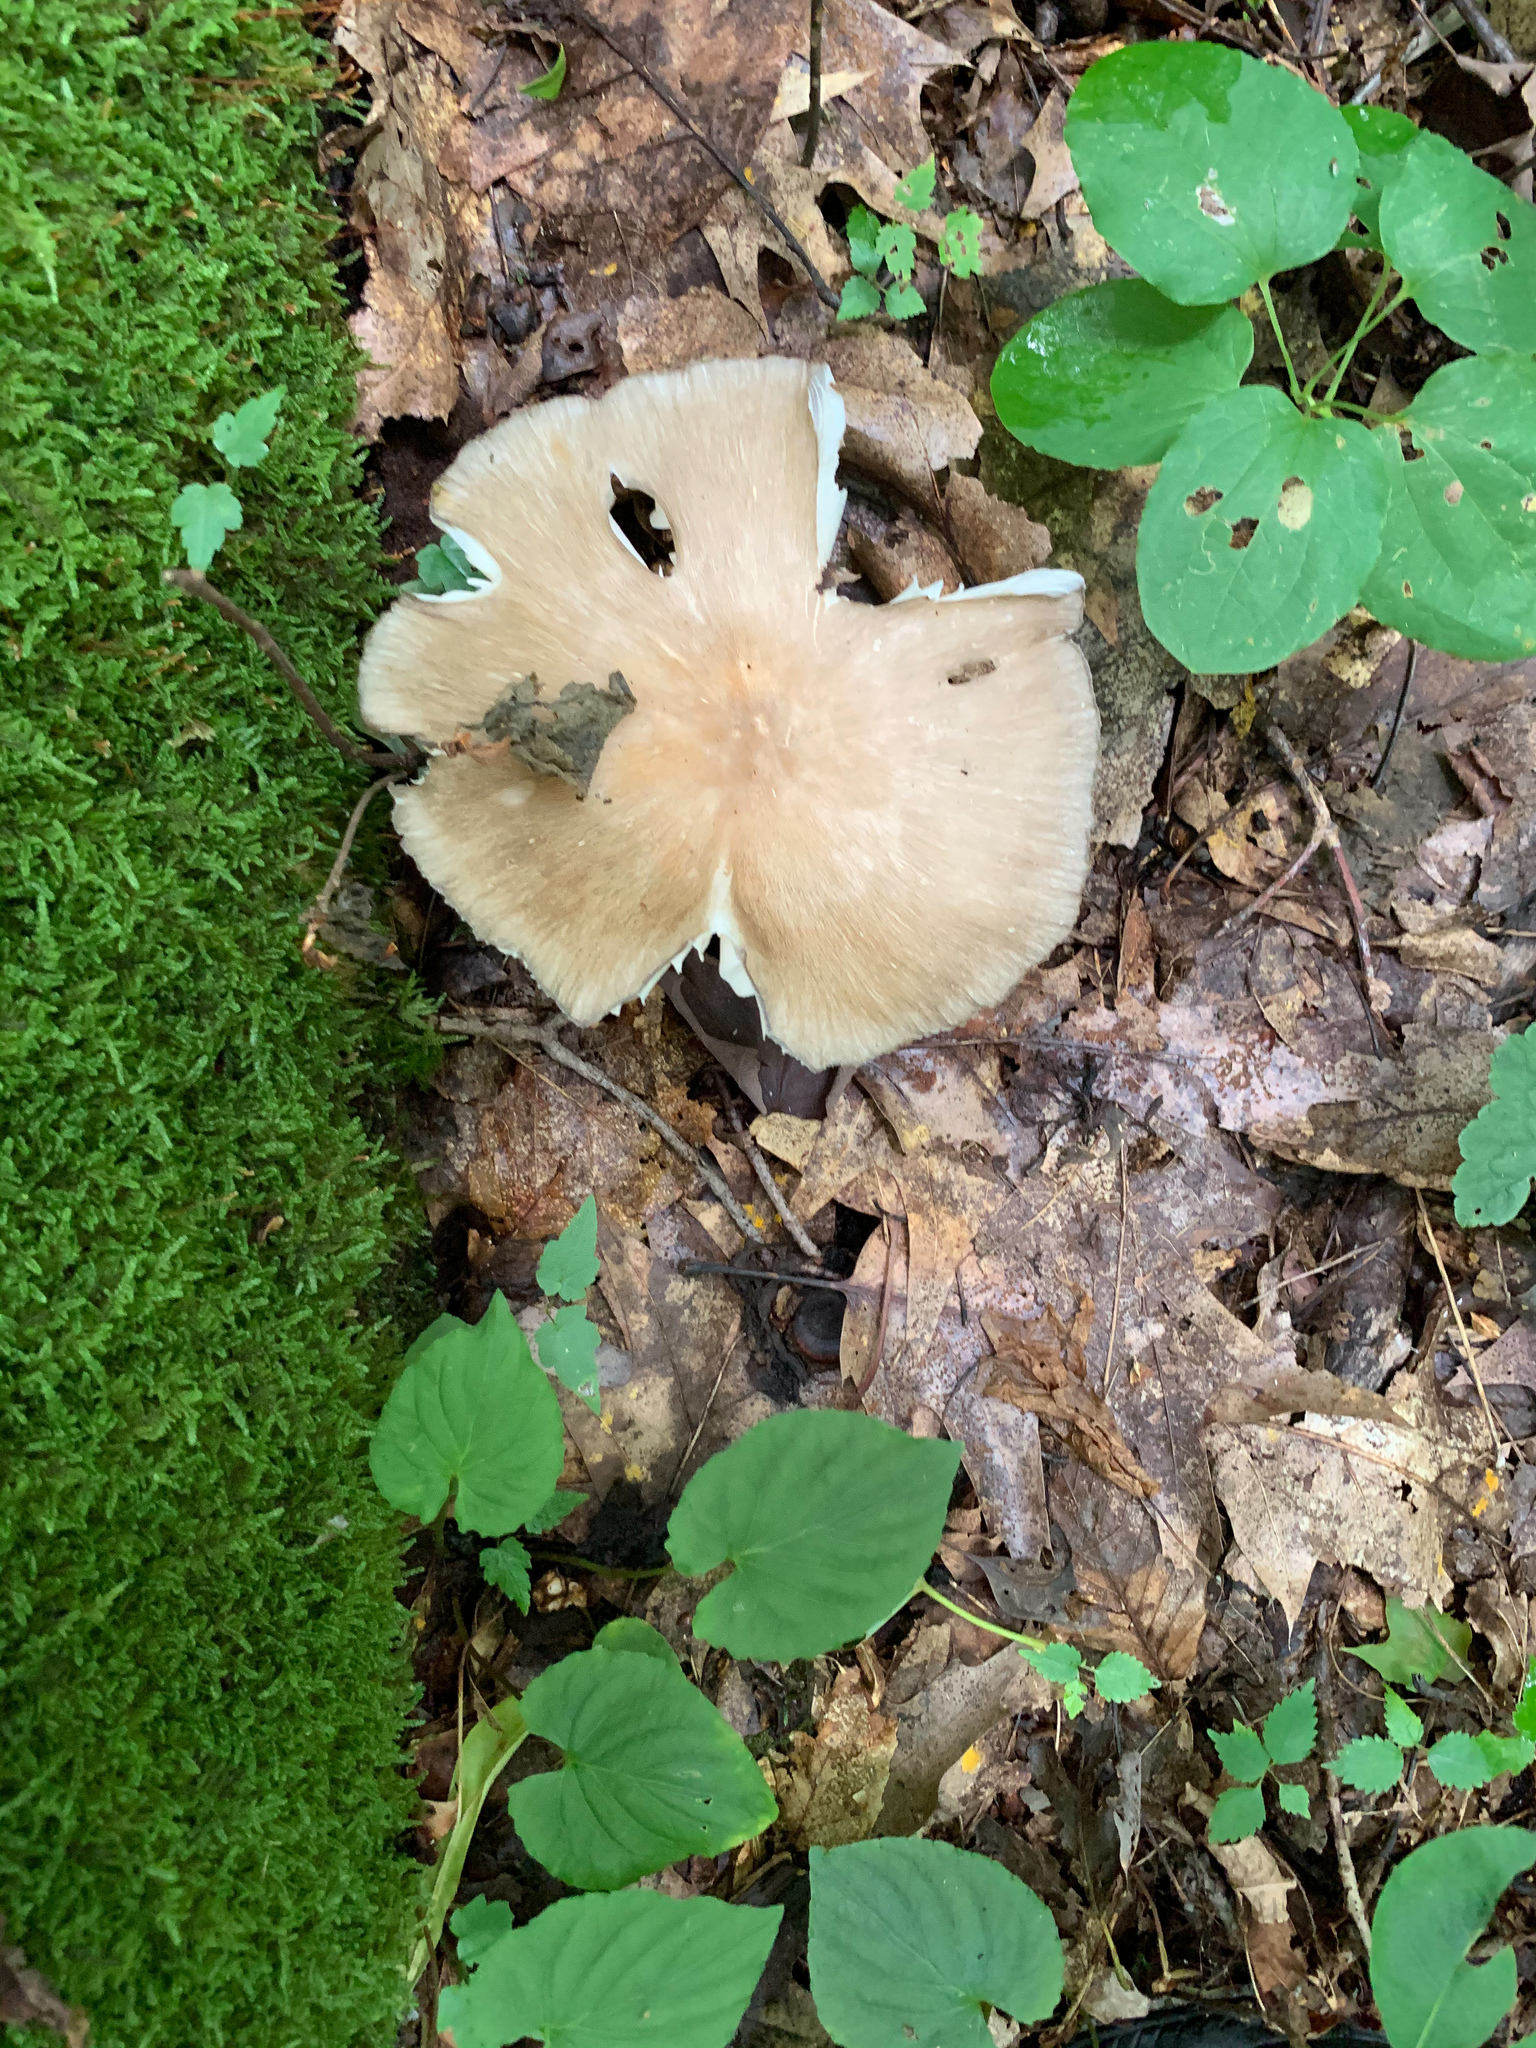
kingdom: Fungi
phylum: Basidiomycota
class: Agaricomycetes
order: Agaricales
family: Tricholomataceae
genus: Megacollybia
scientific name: Megacollybia rodmanii
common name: Eastern american platterful mushroom
